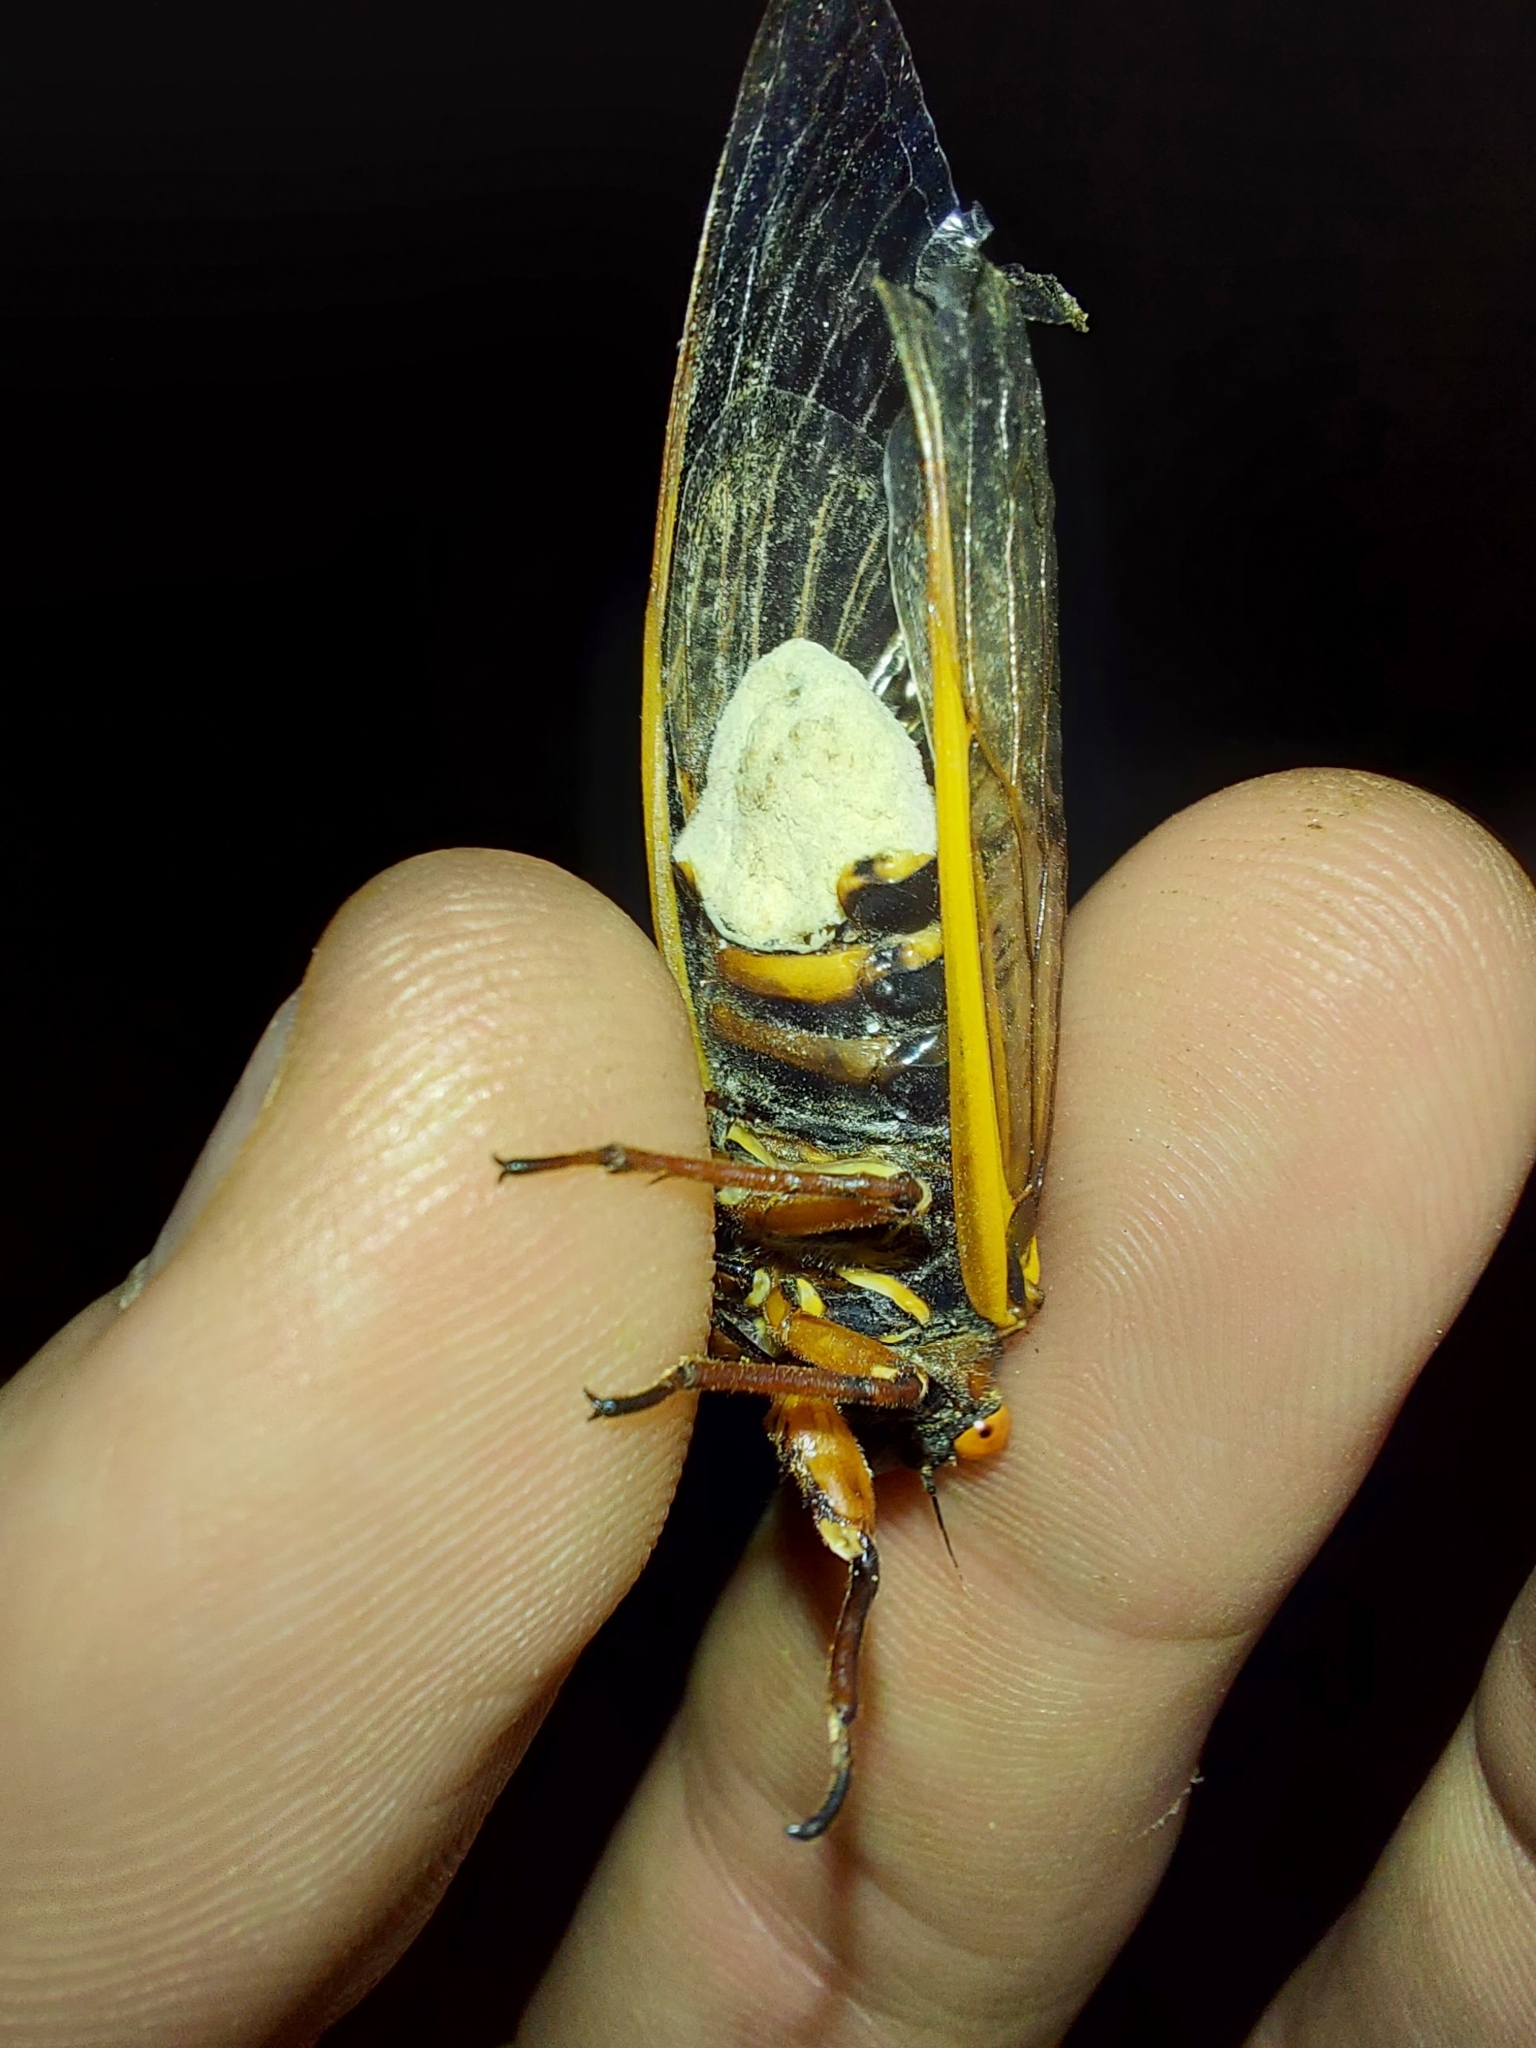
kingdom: Fungi
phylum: Entomophthoromycota
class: Entomophthoromycetes
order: Entomophthorales
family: Entomophthoraceae
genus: Massospora
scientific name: Massospora cicadina
